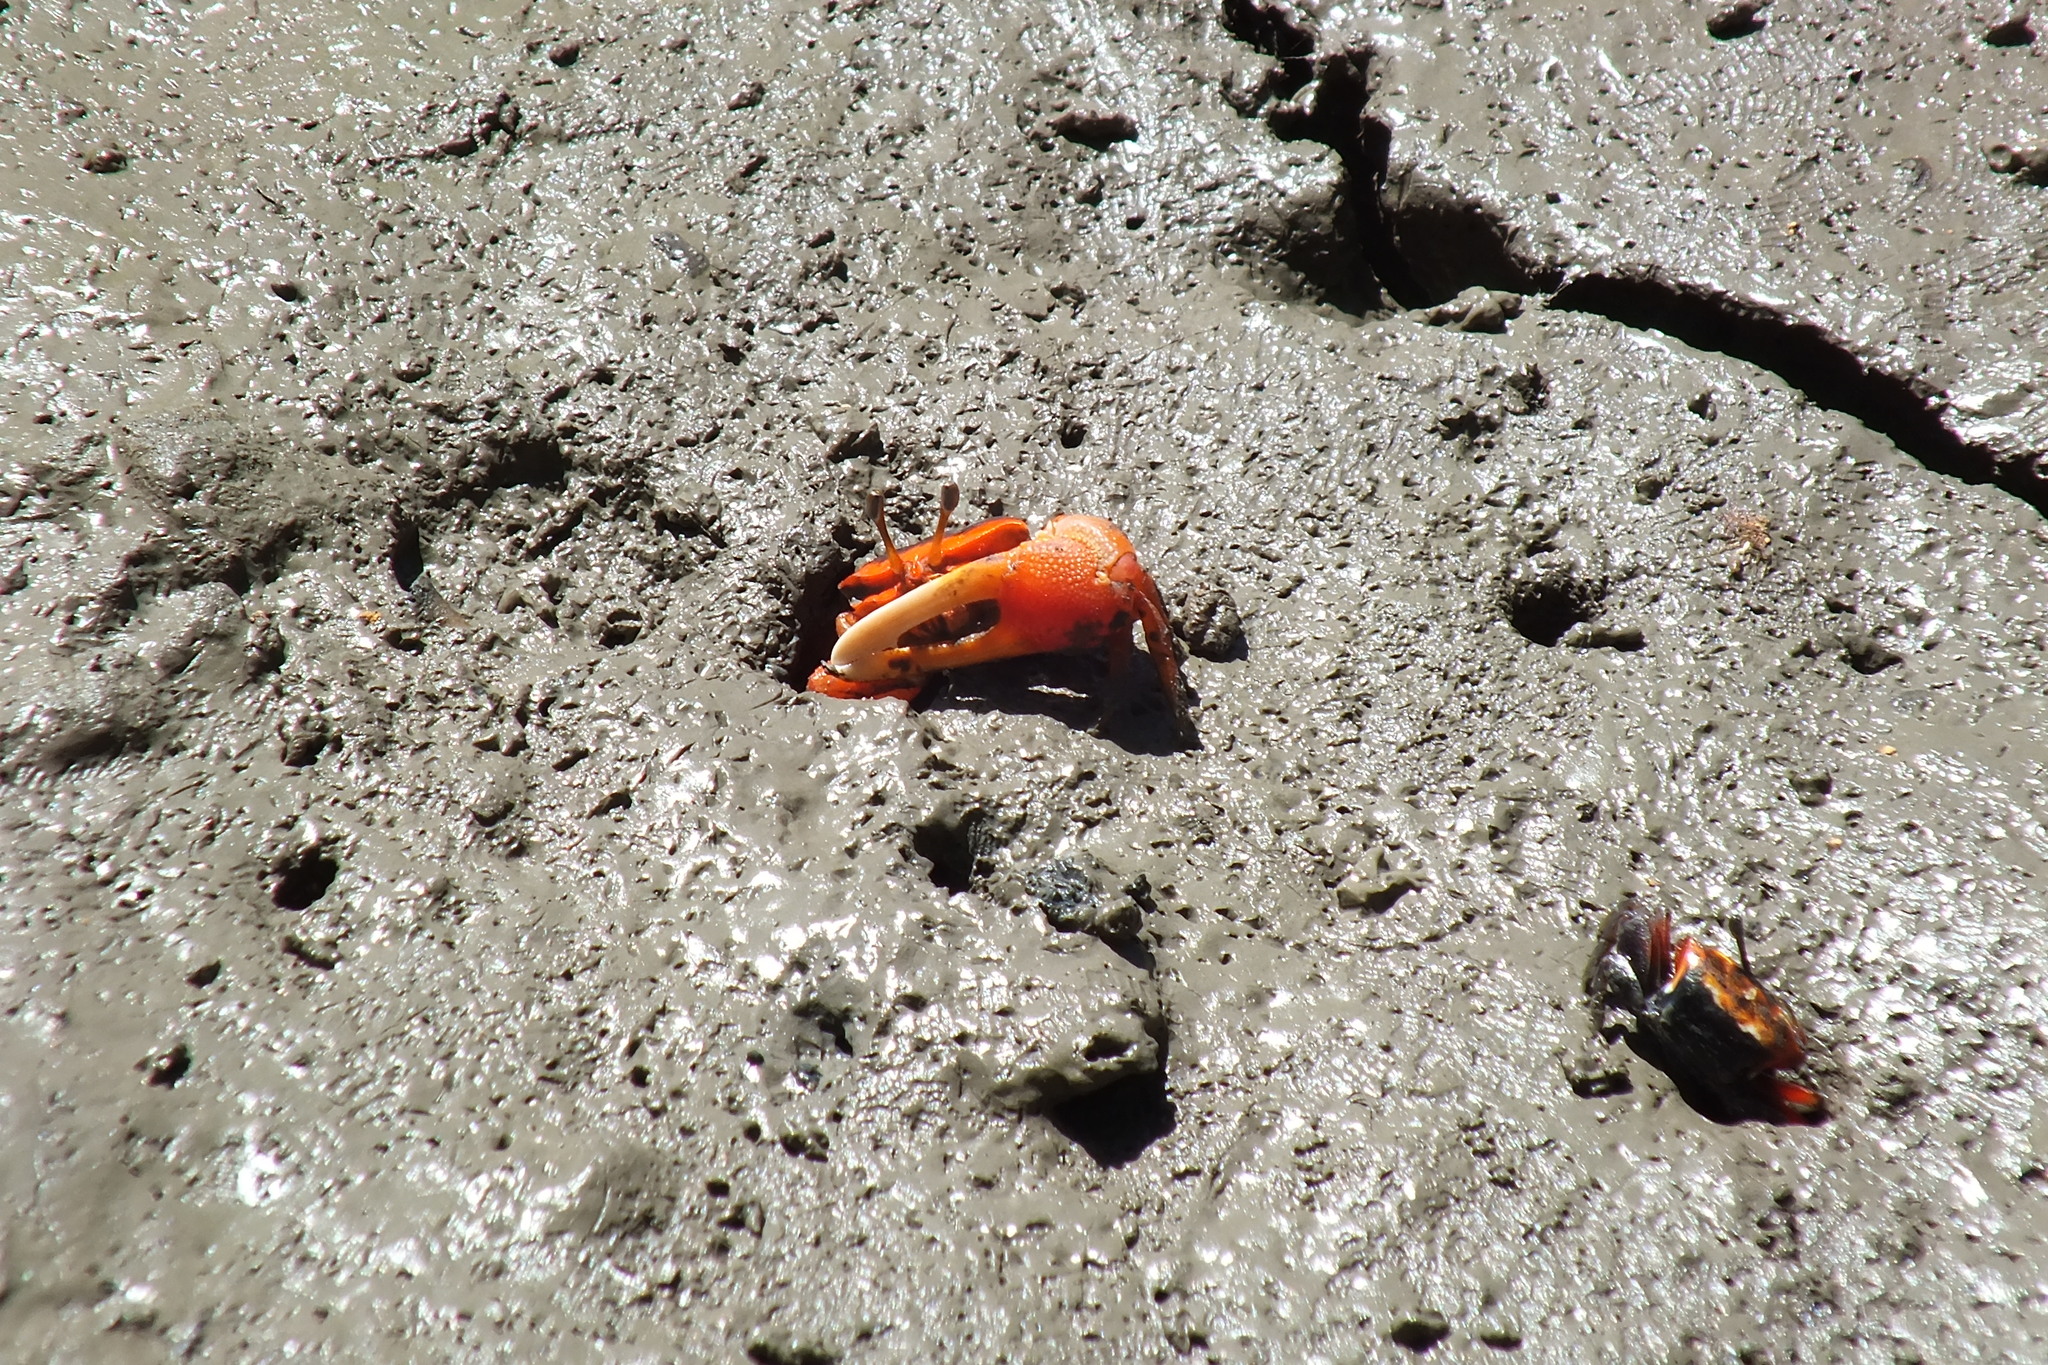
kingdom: Animalia
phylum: Arthropoda
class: Malacostraca
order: Decapoda
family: Ocypodidae
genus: Tubuca
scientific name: Tubuca flammula
